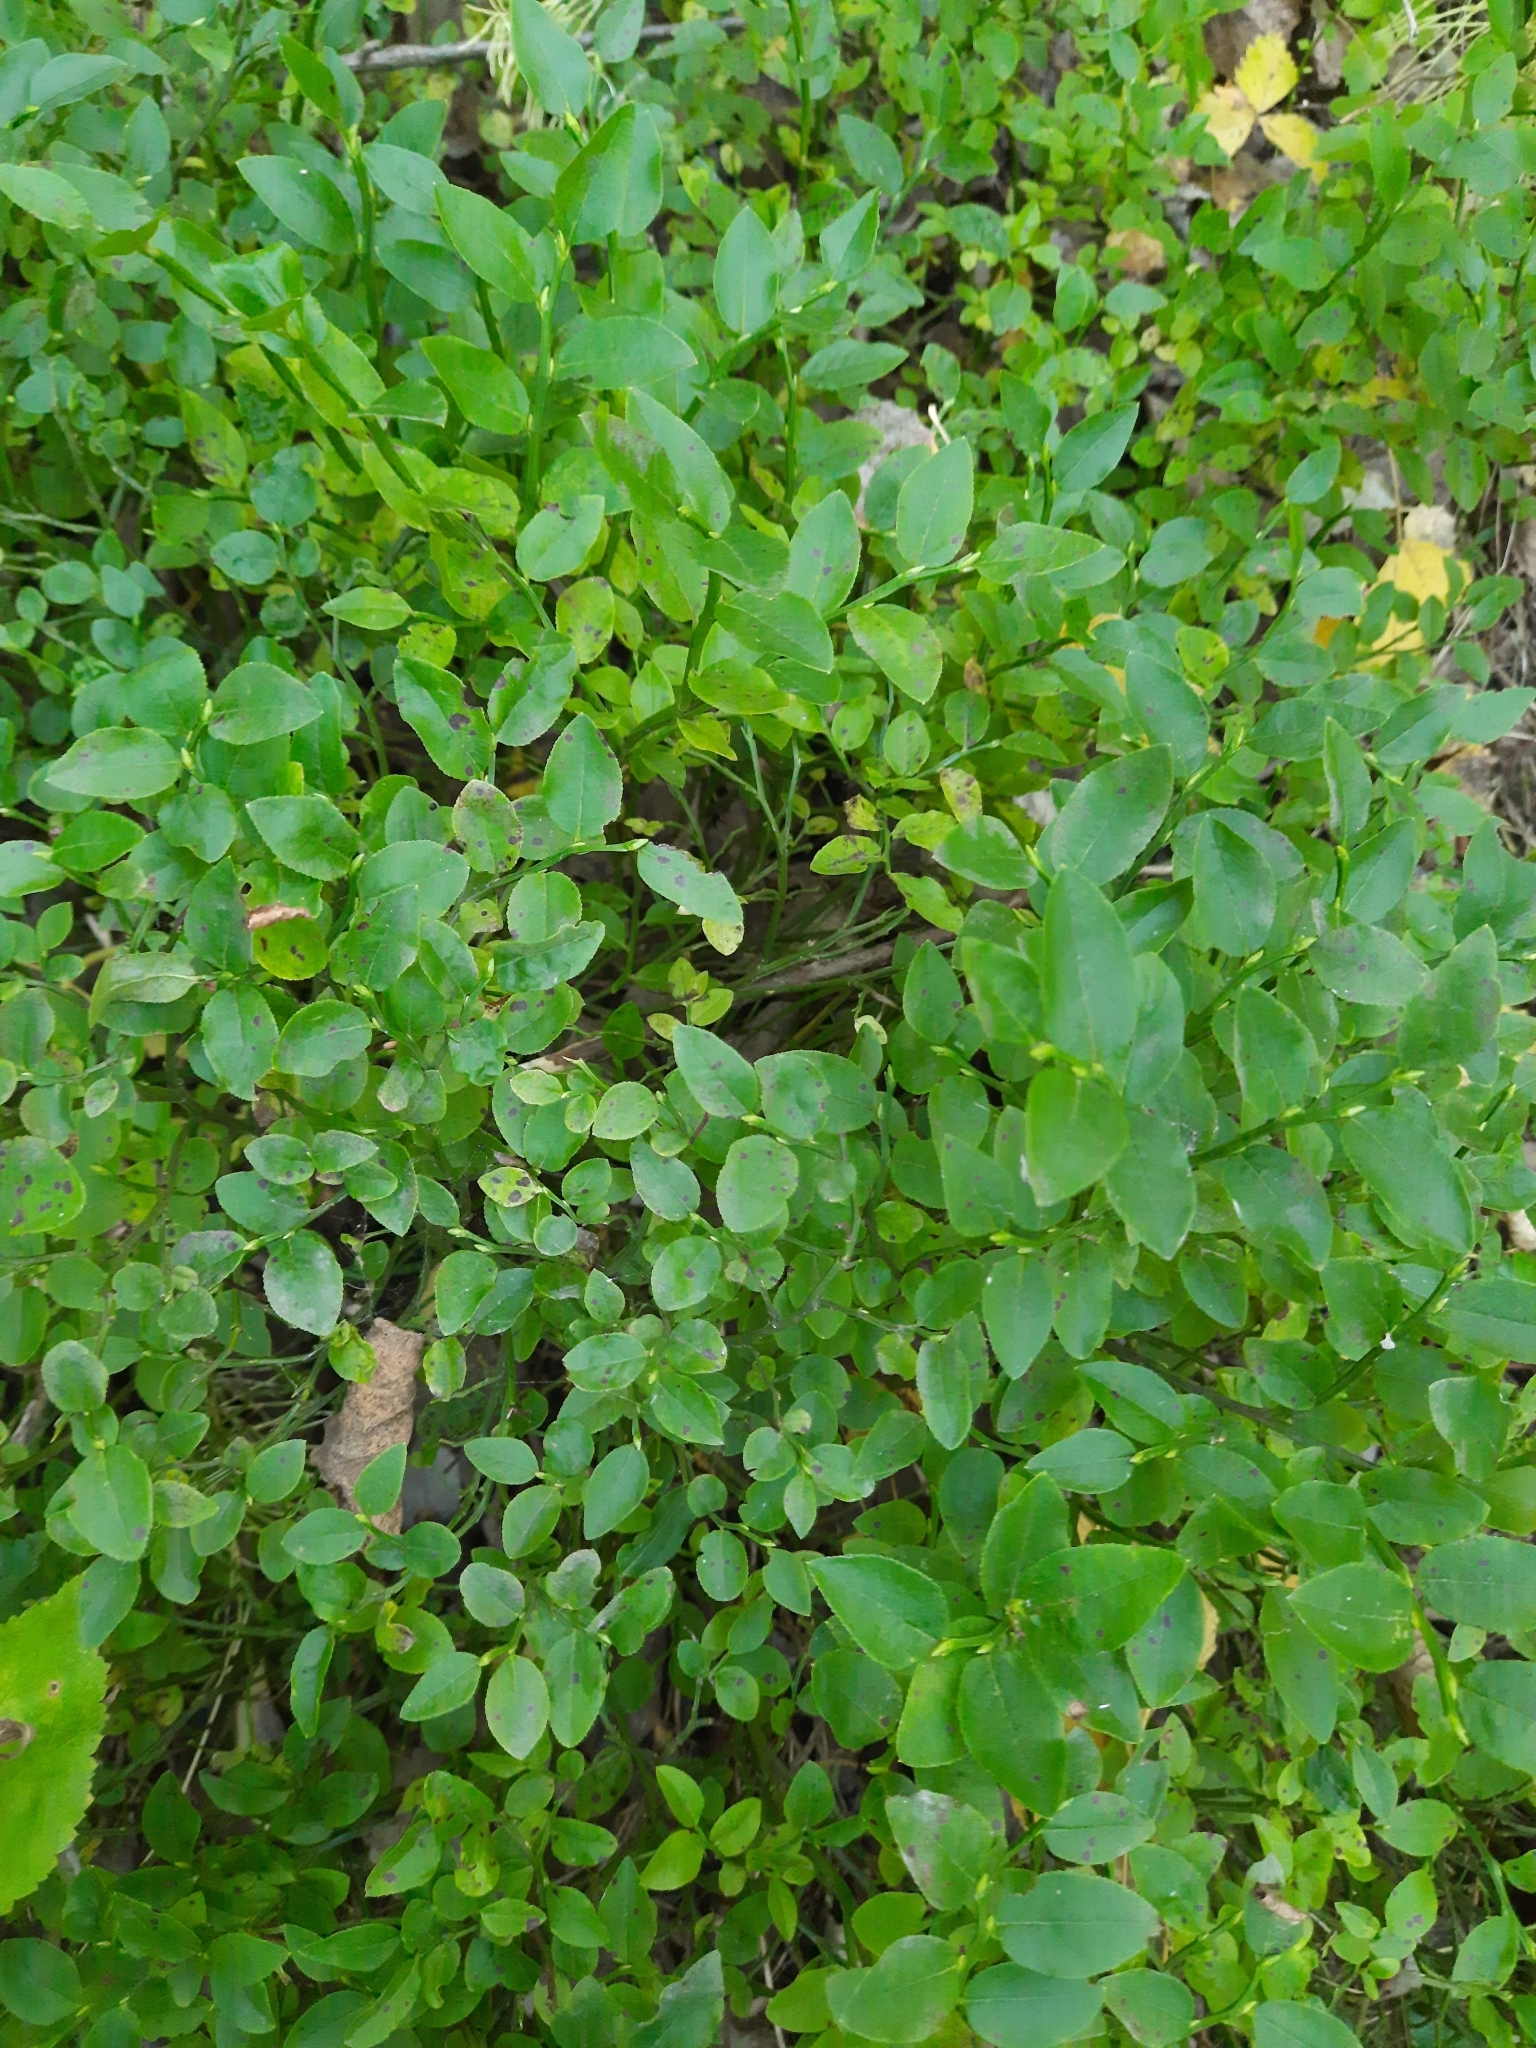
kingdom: Plantae
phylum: Tracheophyta
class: Magnoliopsida
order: Ericales
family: Ericaceae
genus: Vaccinium
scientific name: Vaccinium myrtillus
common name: Bilberry
